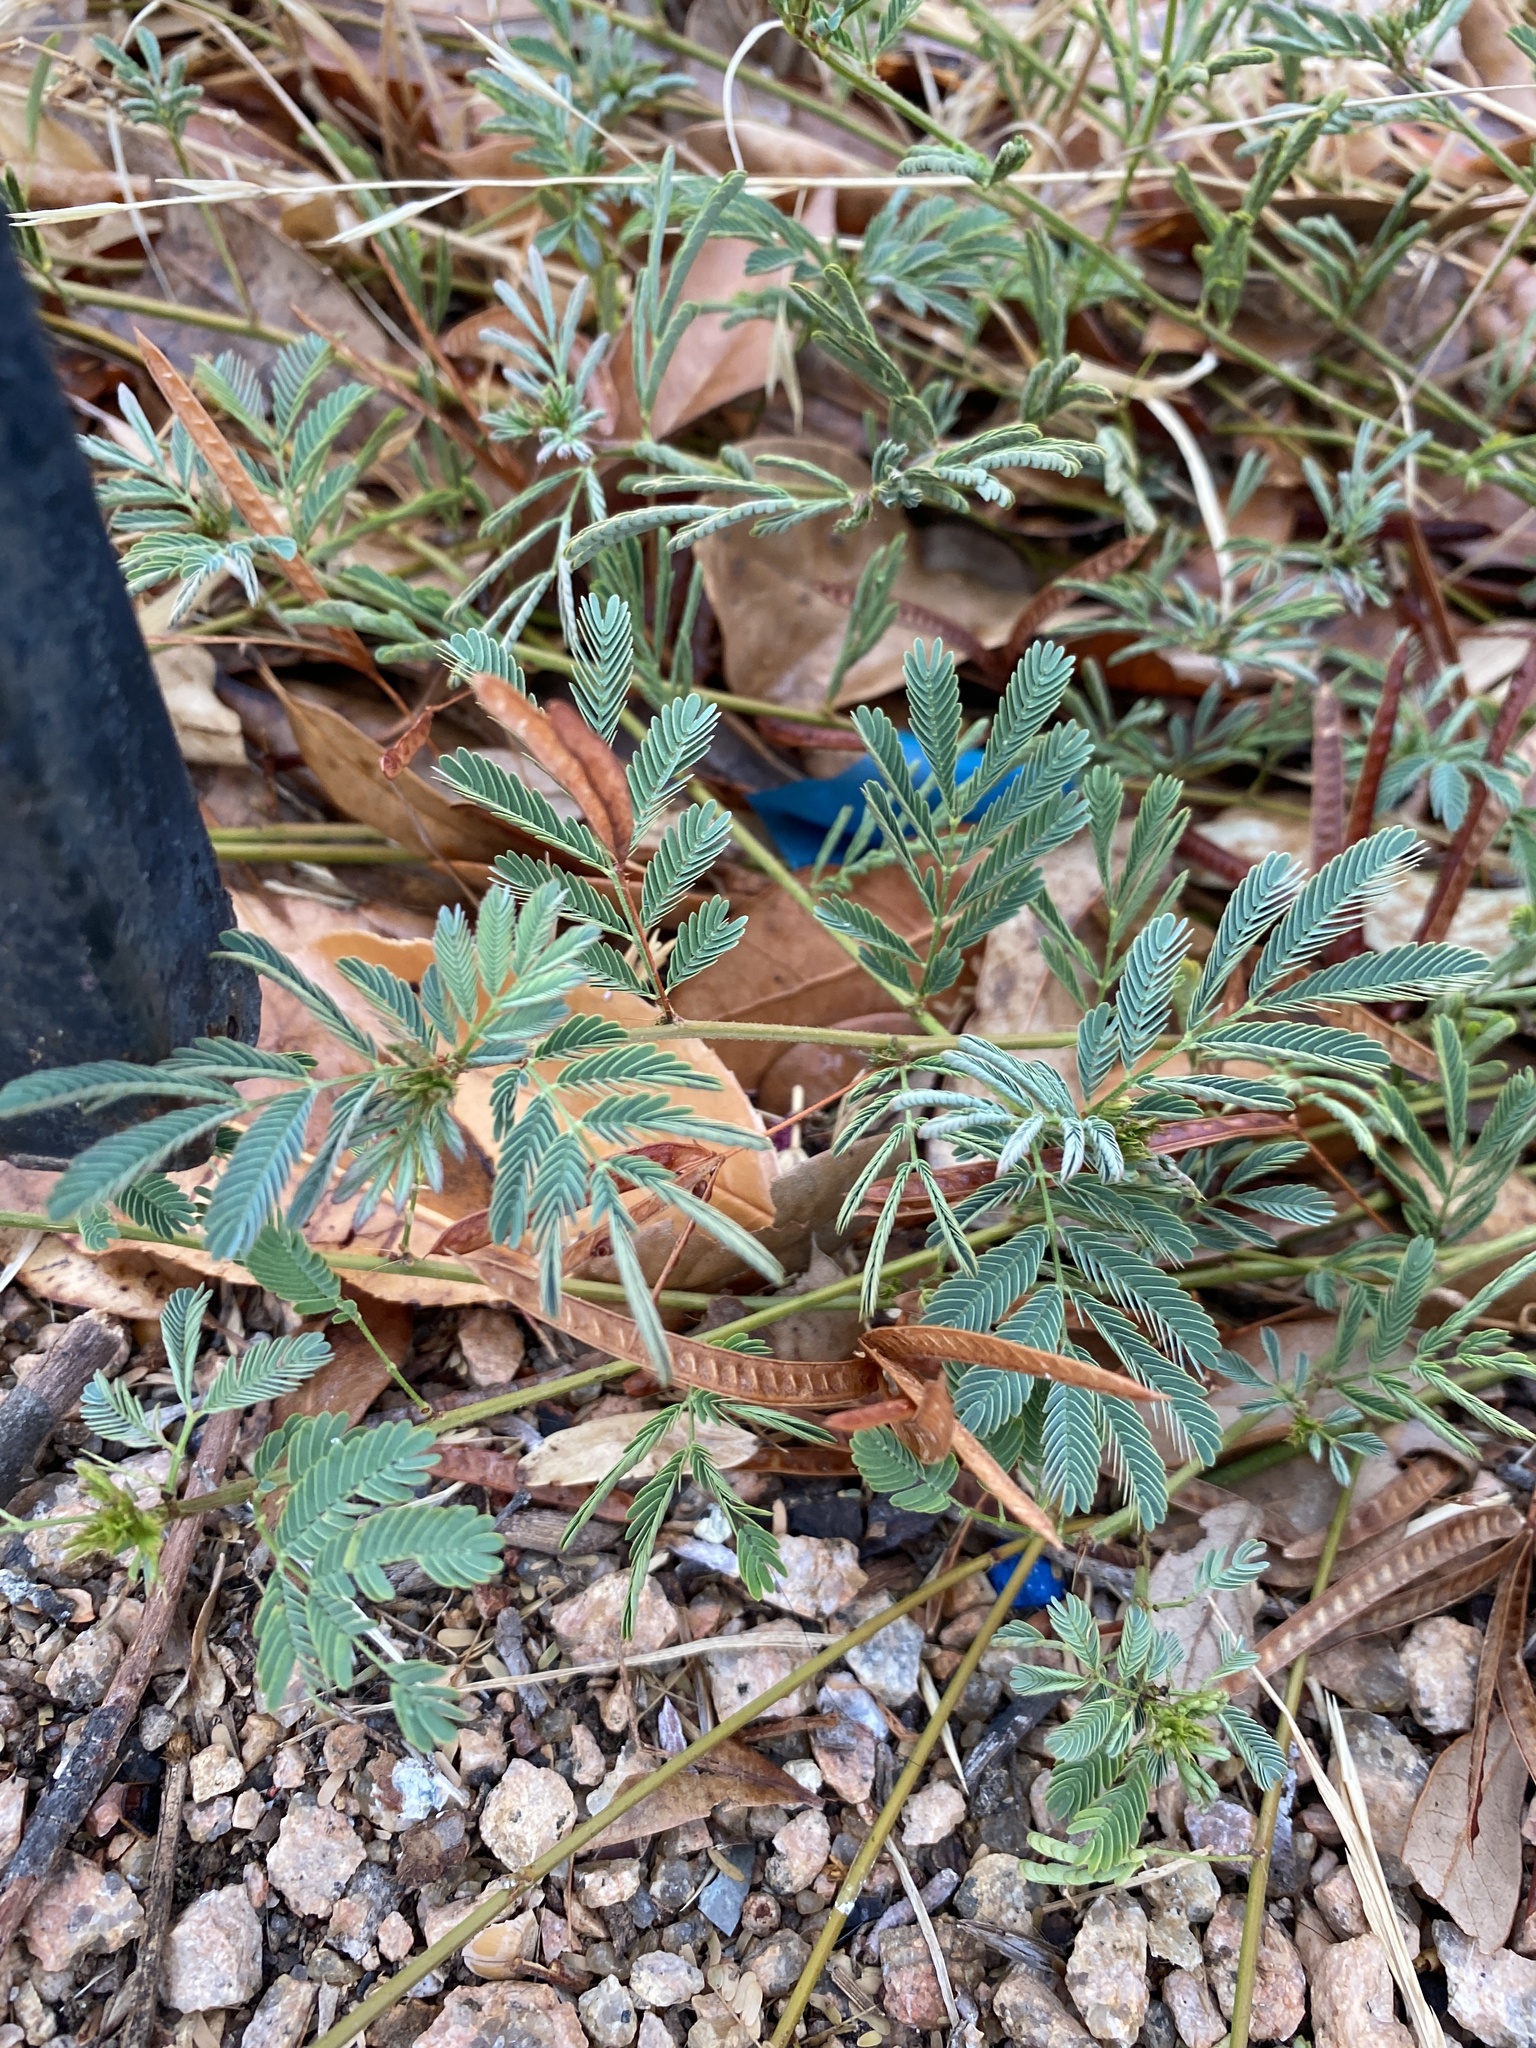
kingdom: Plantae
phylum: Tracheophyta
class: Magnoliopsida
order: Fabales
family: Fabaceae
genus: Desmanthus
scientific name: Desmanthus leptolobus
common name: Prairie-mimosa
